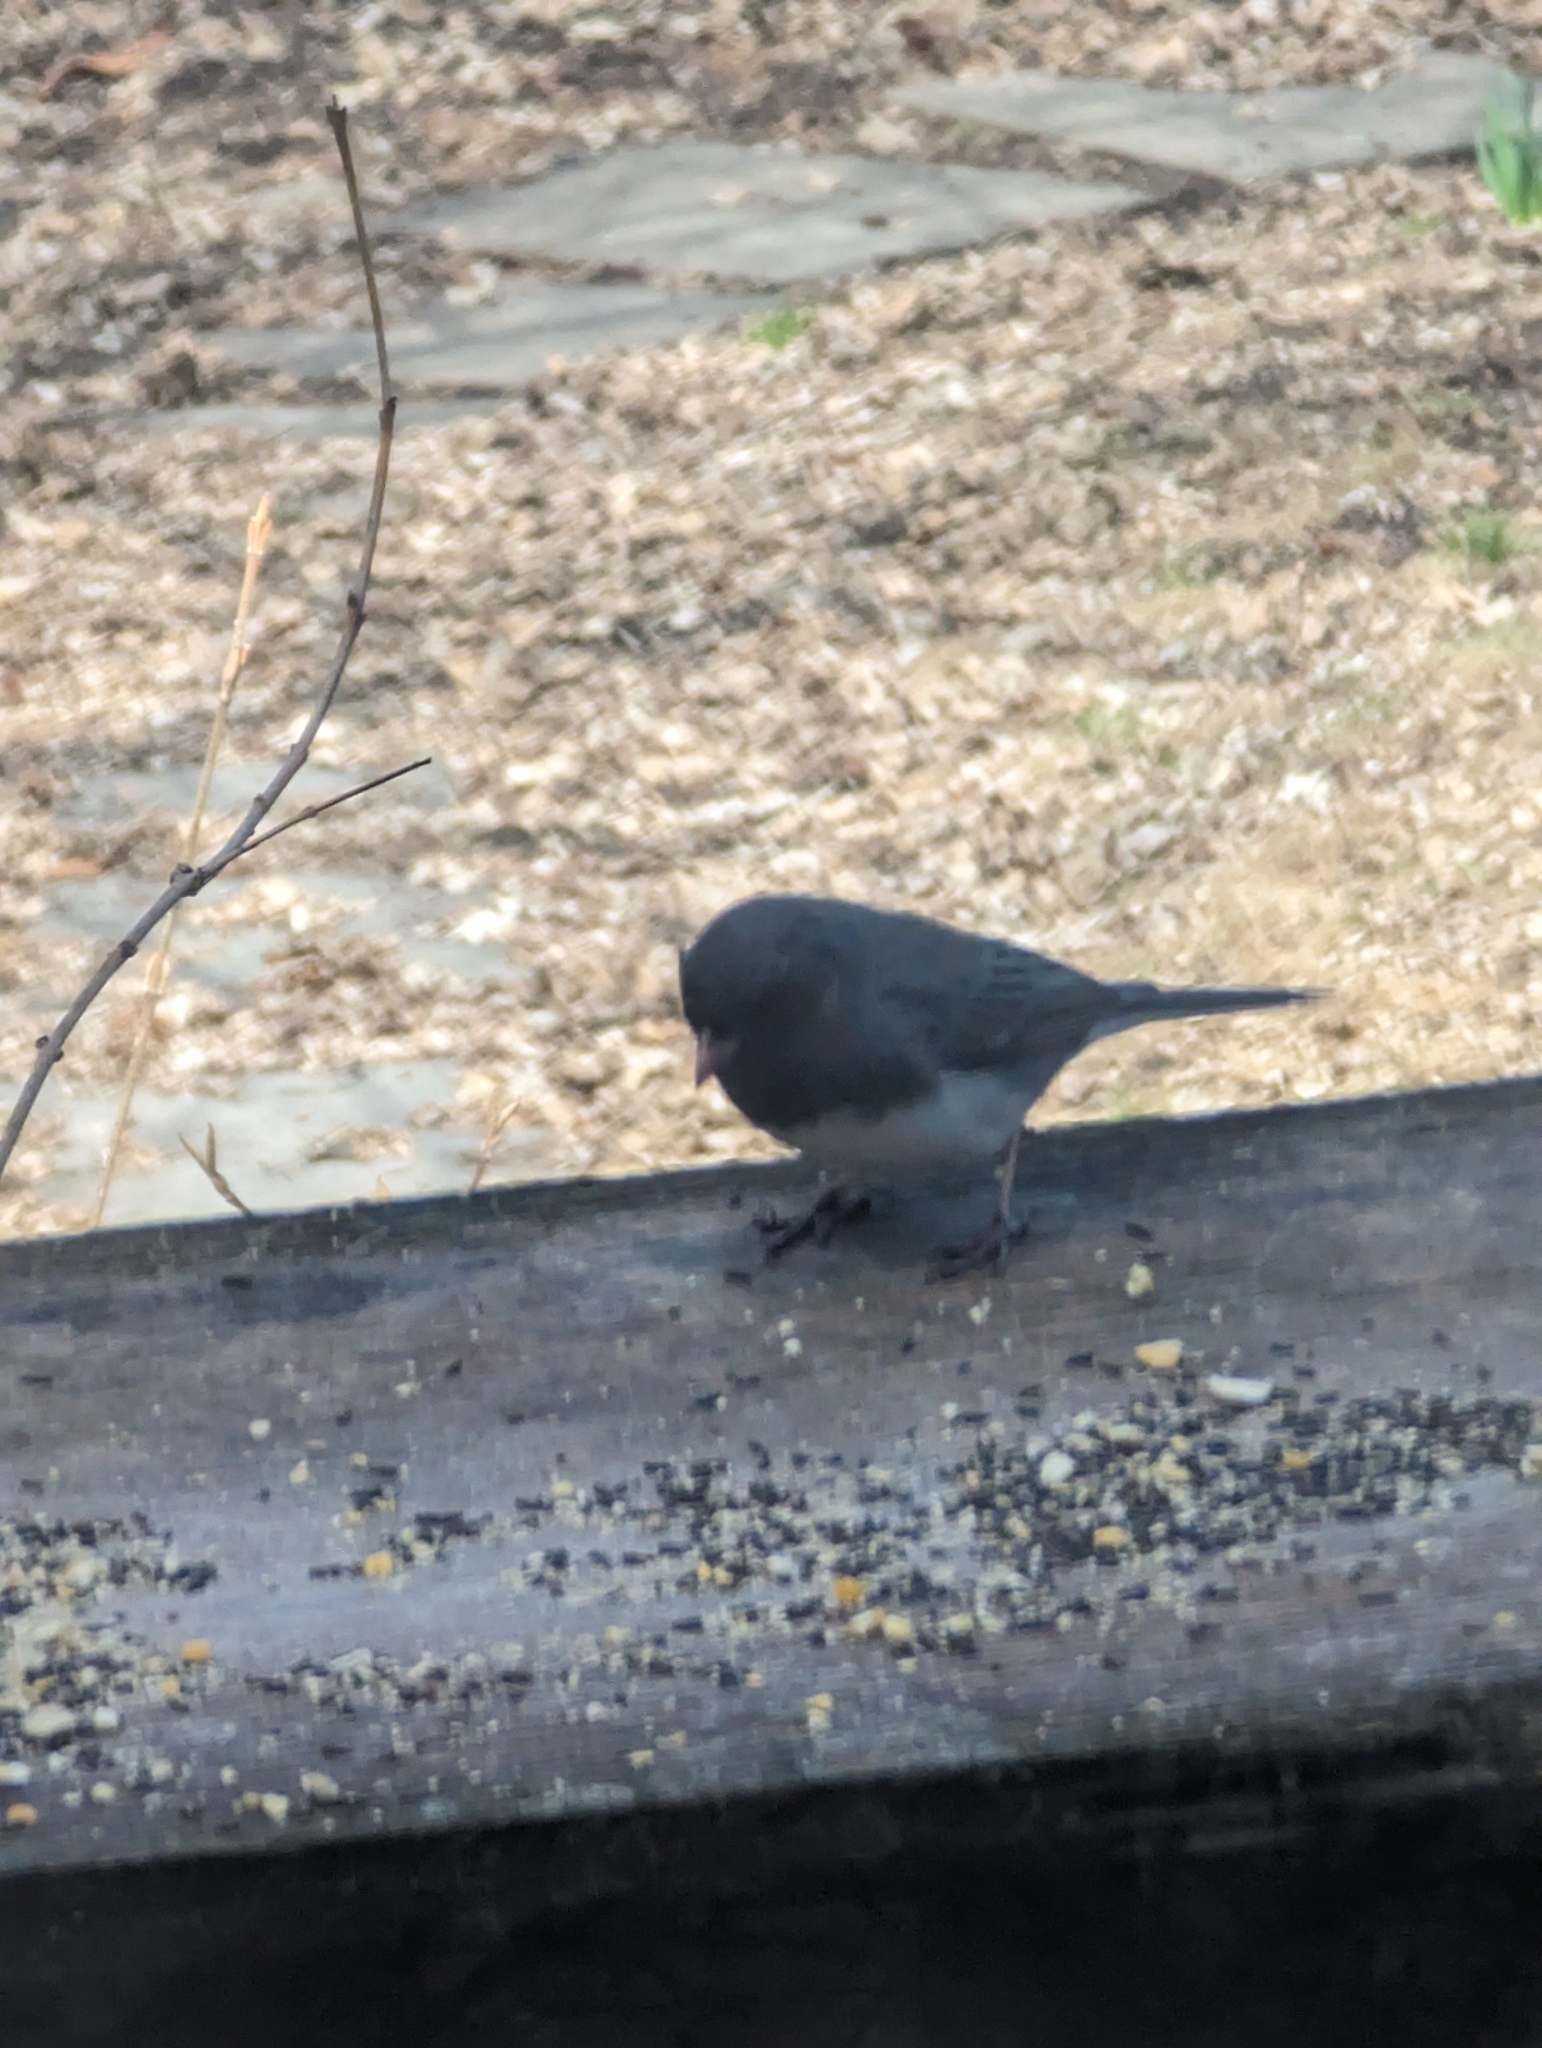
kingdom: Animalia
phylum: Chordata
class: Aves
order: Passeriformes
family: Passerellidae
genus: Junco
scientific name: Junco hyemalis
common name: Dark-eyed junco
